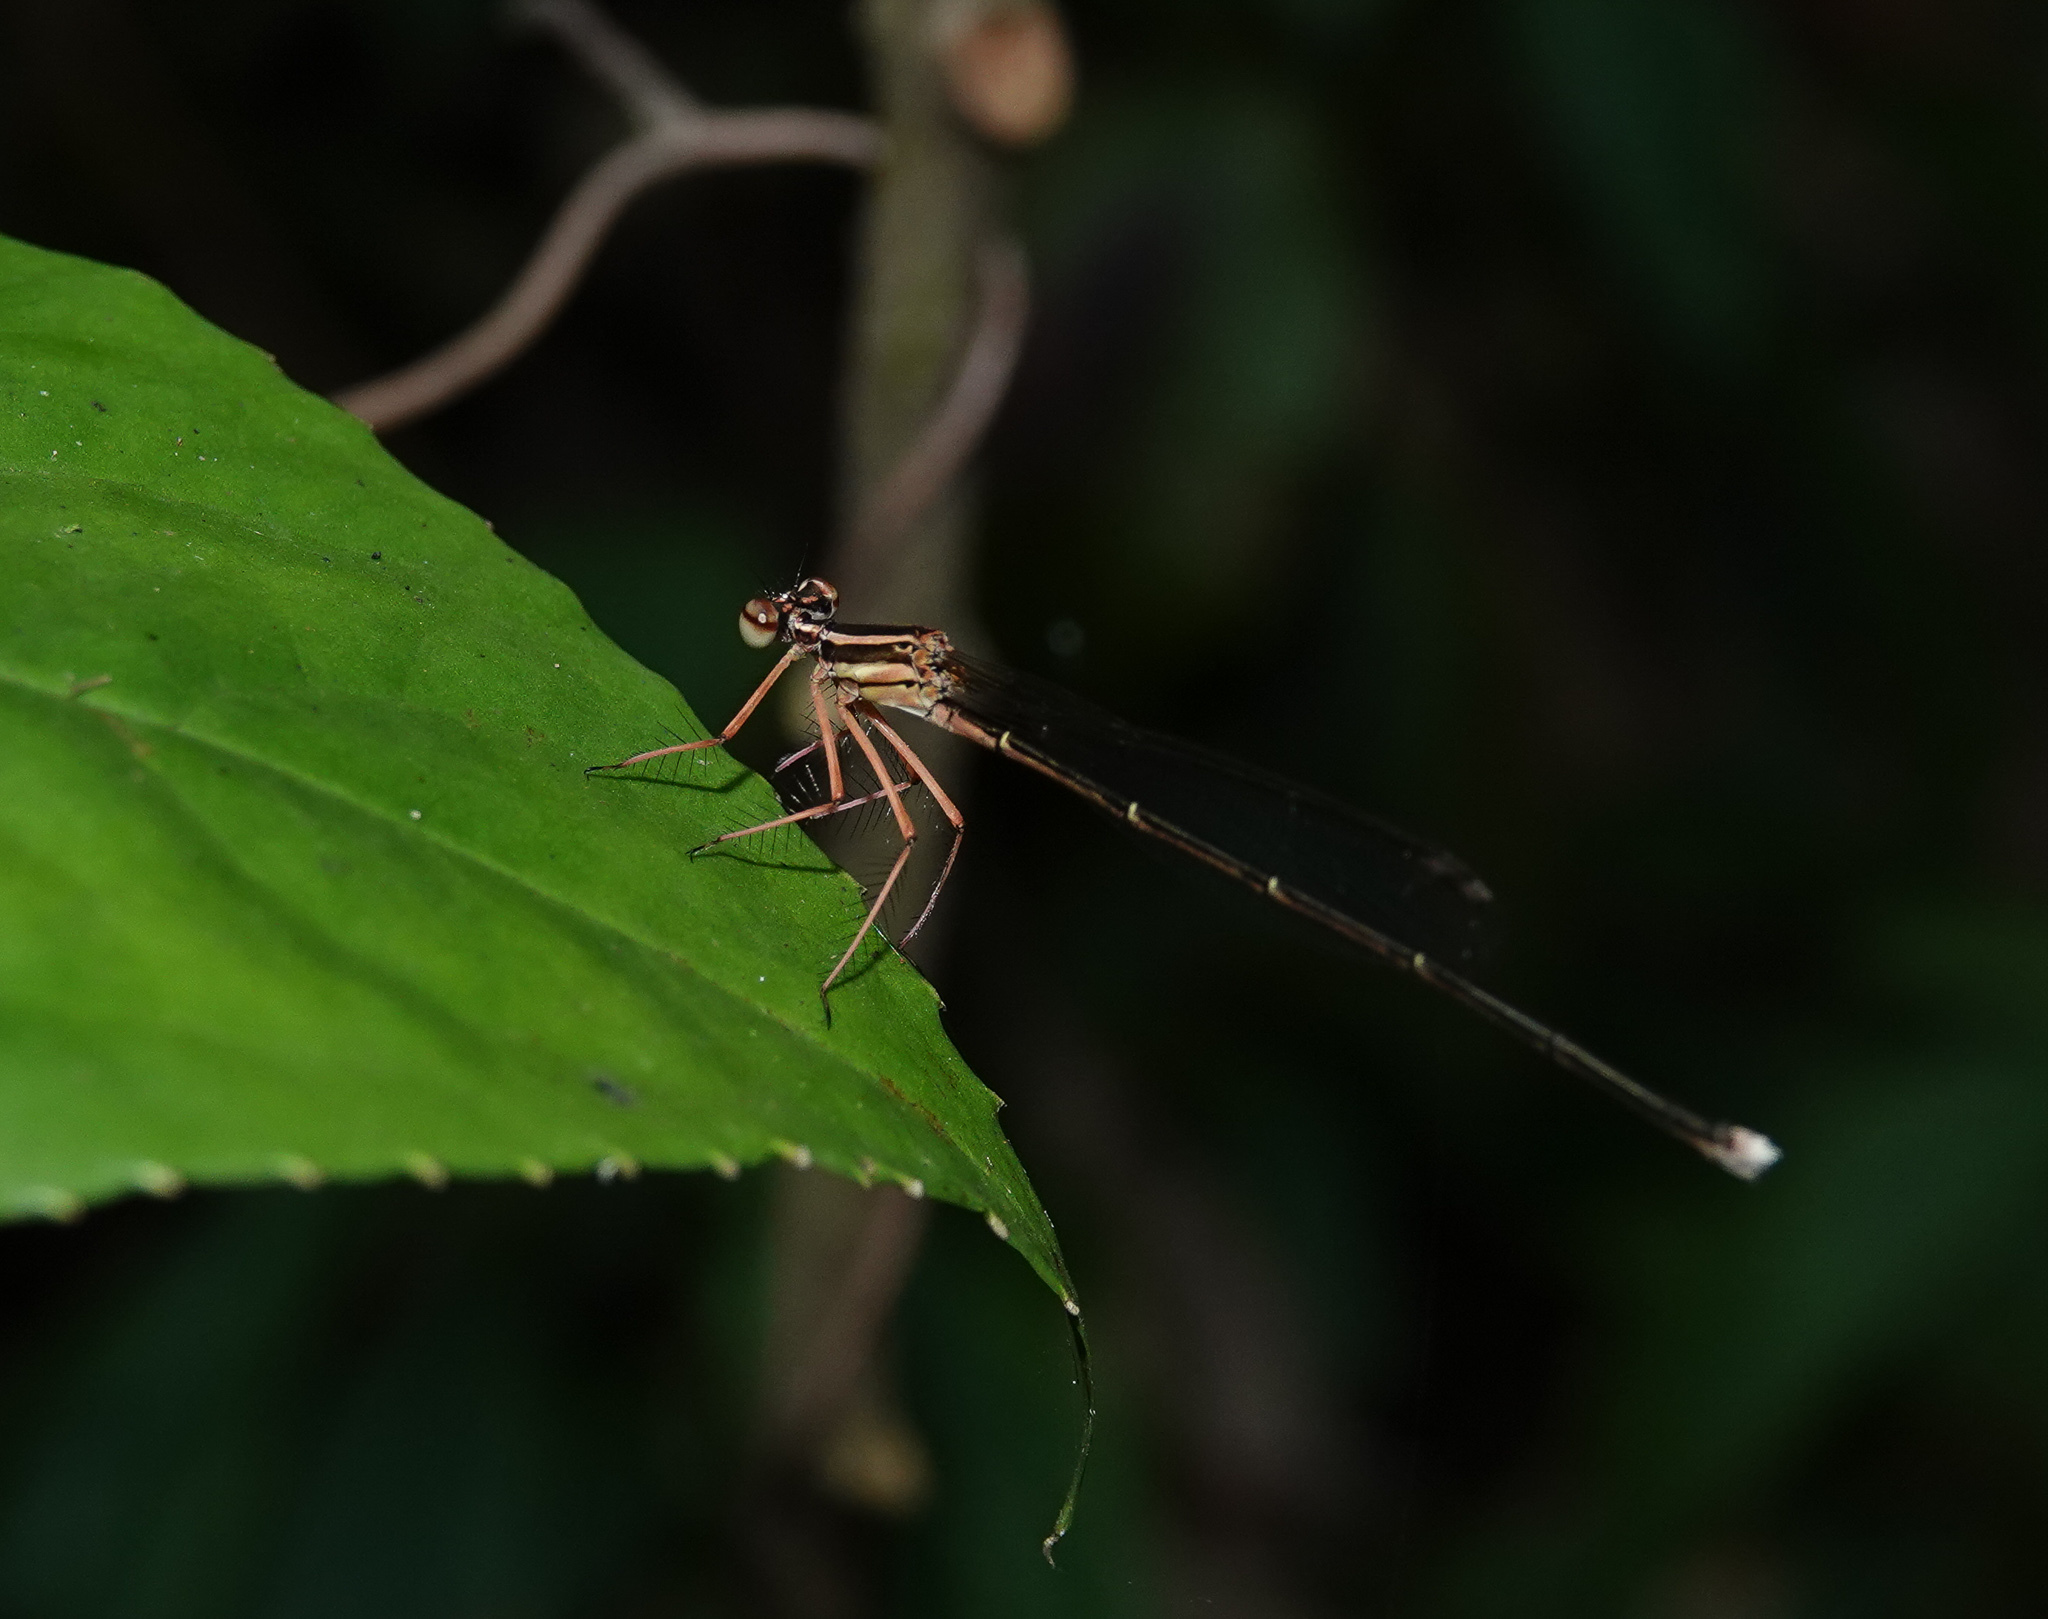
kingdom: Animalia
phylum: Arthropoda
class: Insecta
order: Odonata
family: Platycnemididae
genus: Pseudocopera
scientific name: Pseudocopera ciliata
